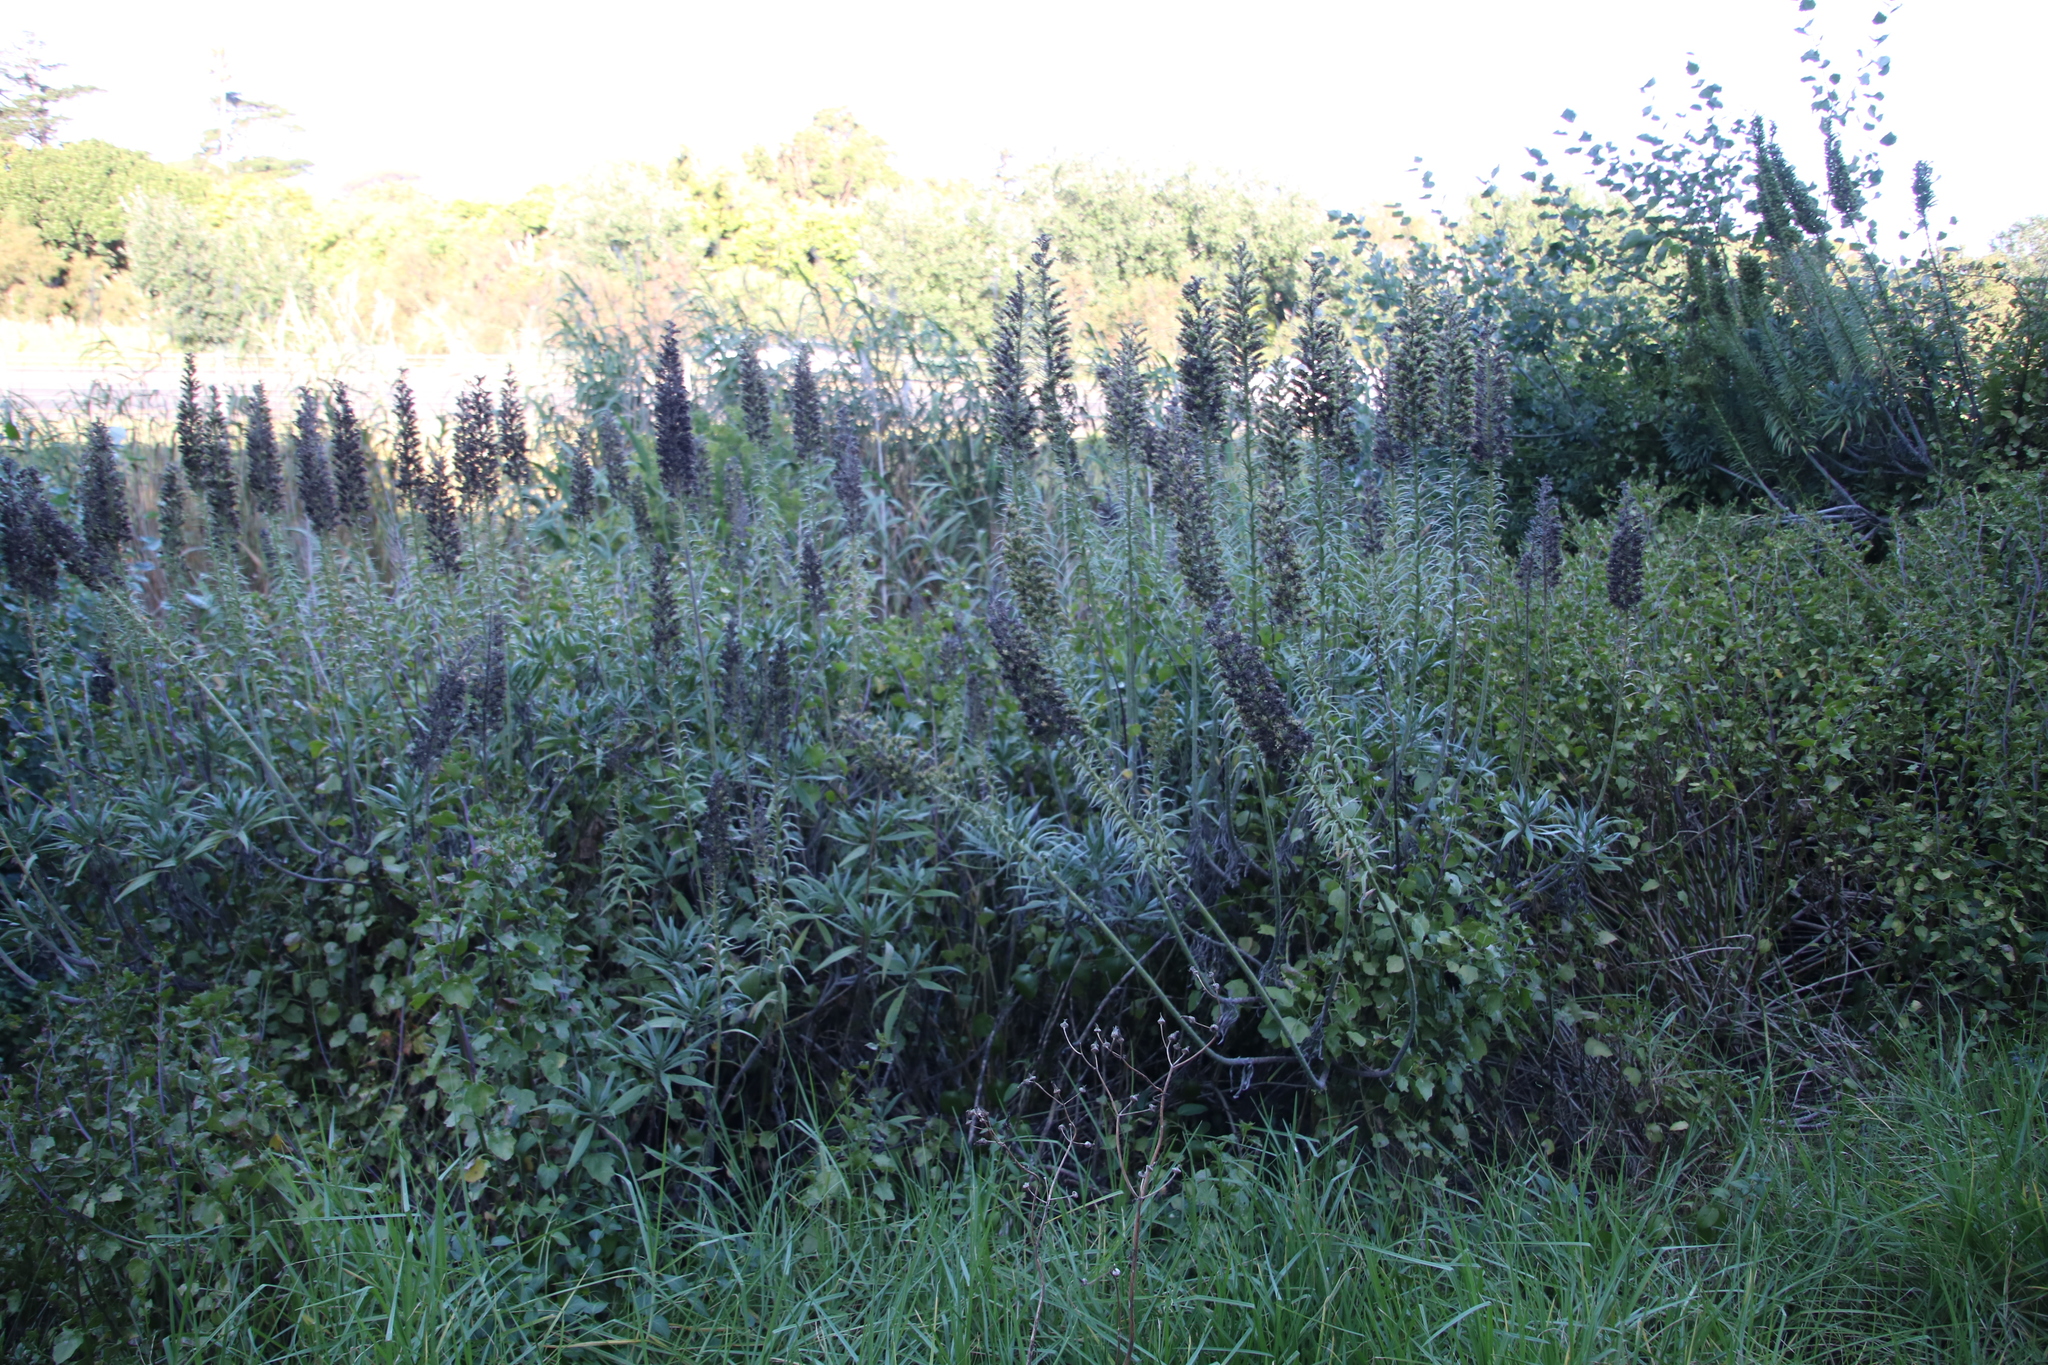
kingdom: Plantae
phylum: Tracheophyta
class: Magnoliopsida
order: Boraginales
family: Boraginaceae
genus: Echium
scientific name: Echium candicans
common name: Pride of madeira
